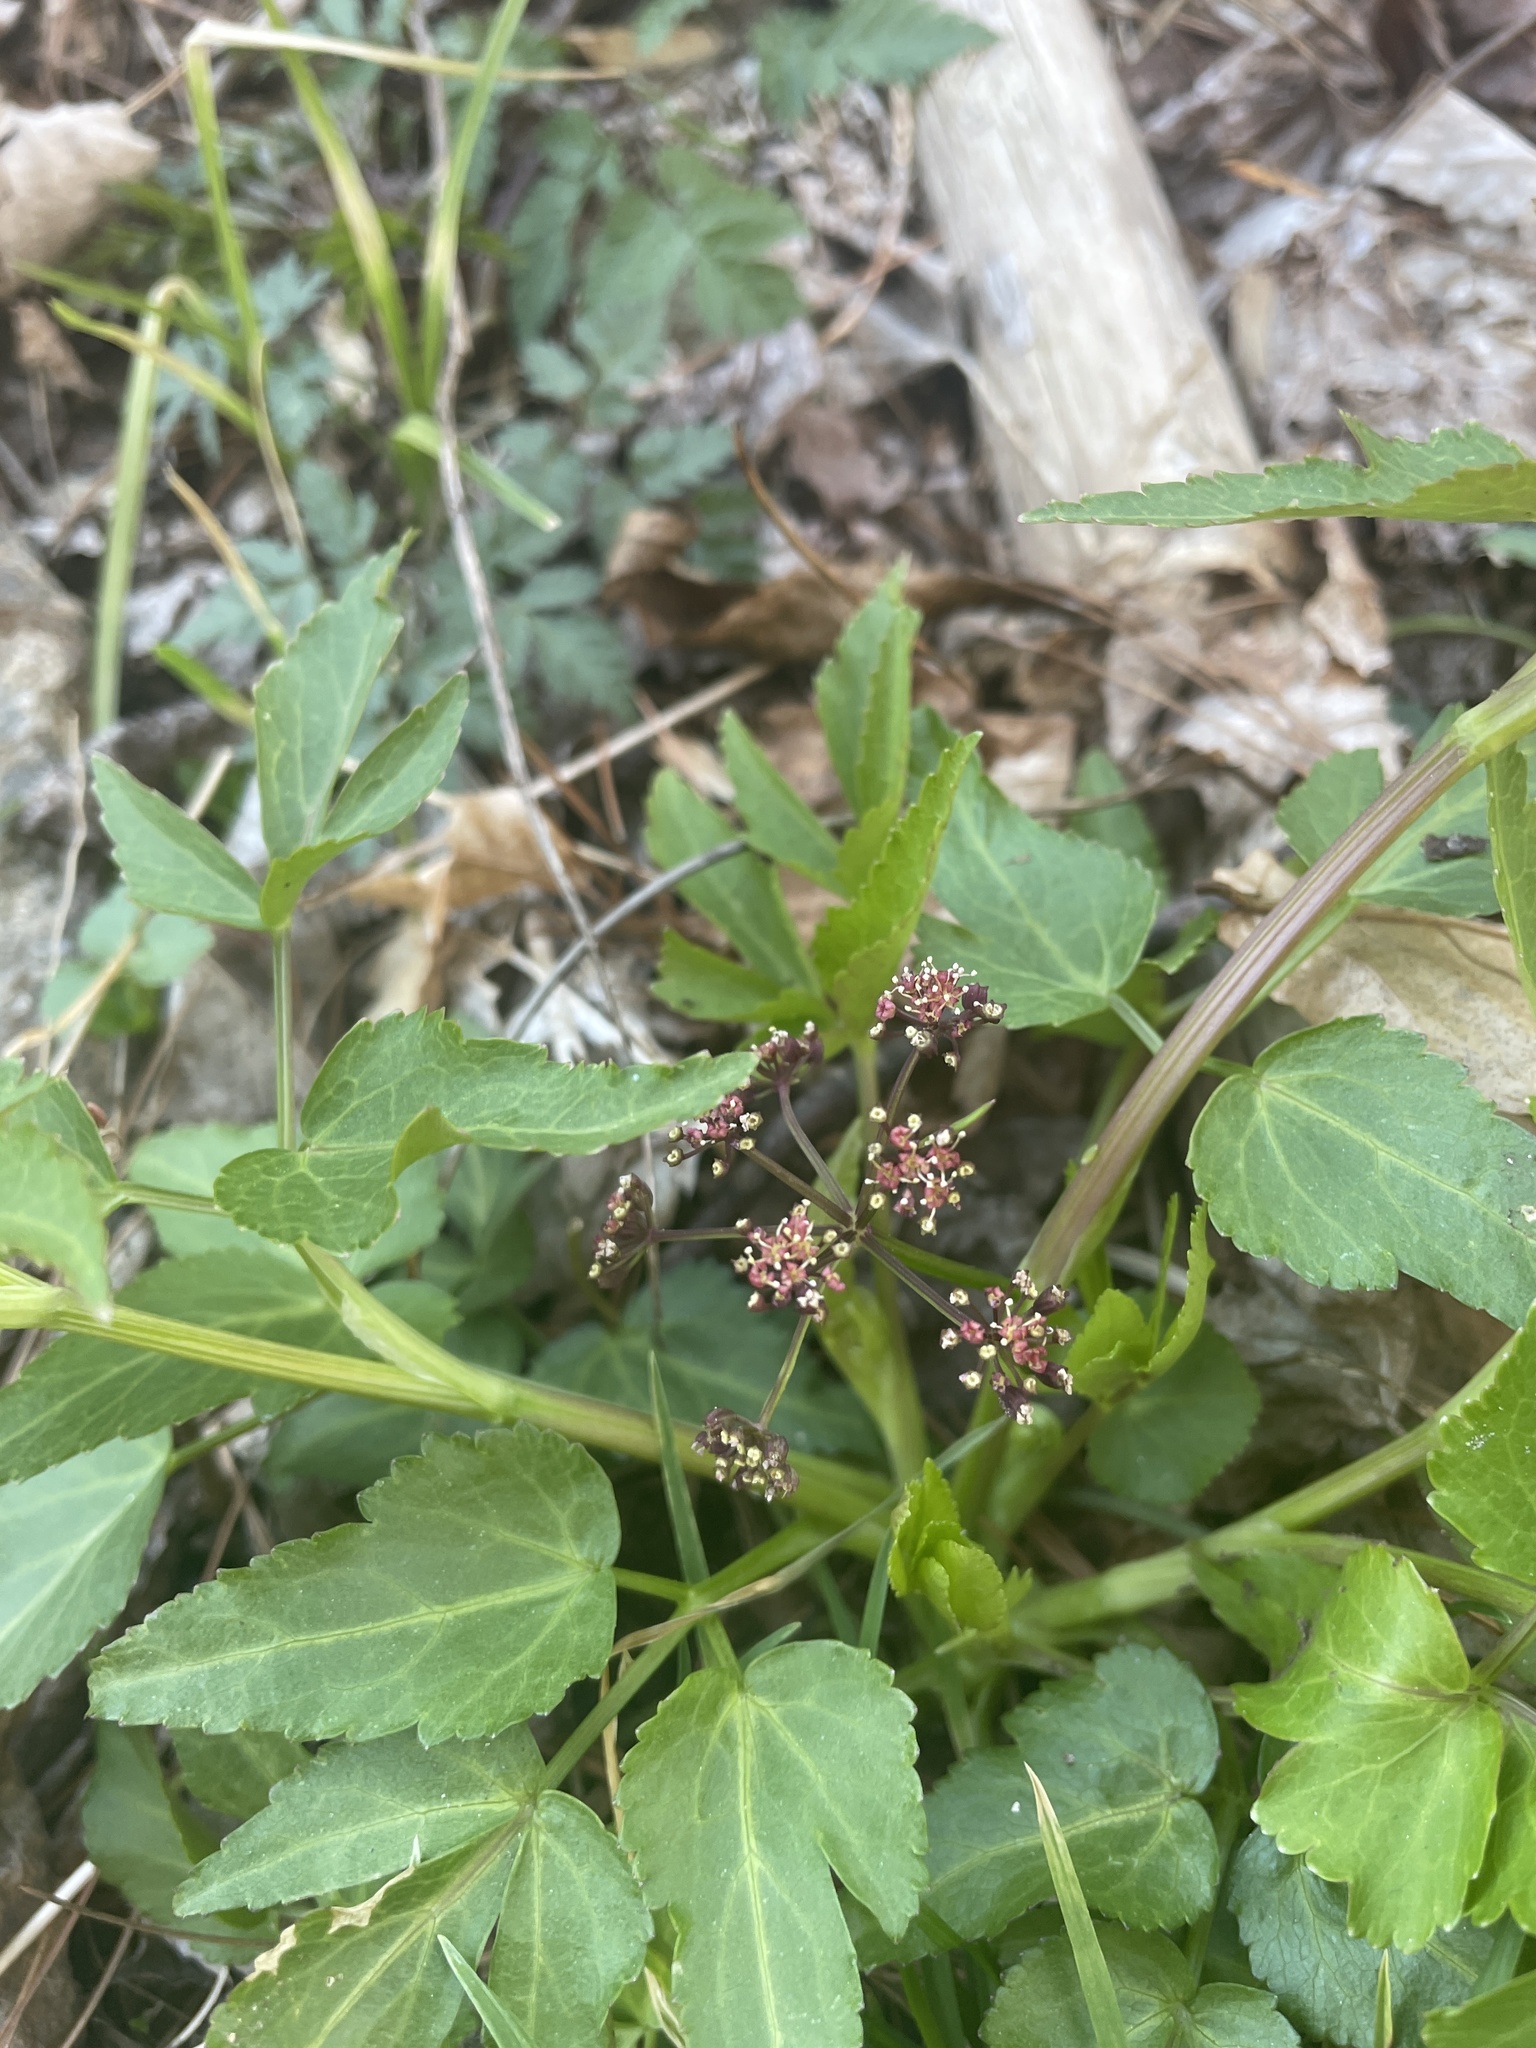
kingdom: Plantae
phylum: Tracheophyta
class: Magnoliopsida
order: Apiales
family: Apiaceae
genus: Thaspium
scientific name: Thaspium trifoliatum
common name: Purple meadow-parsnip
